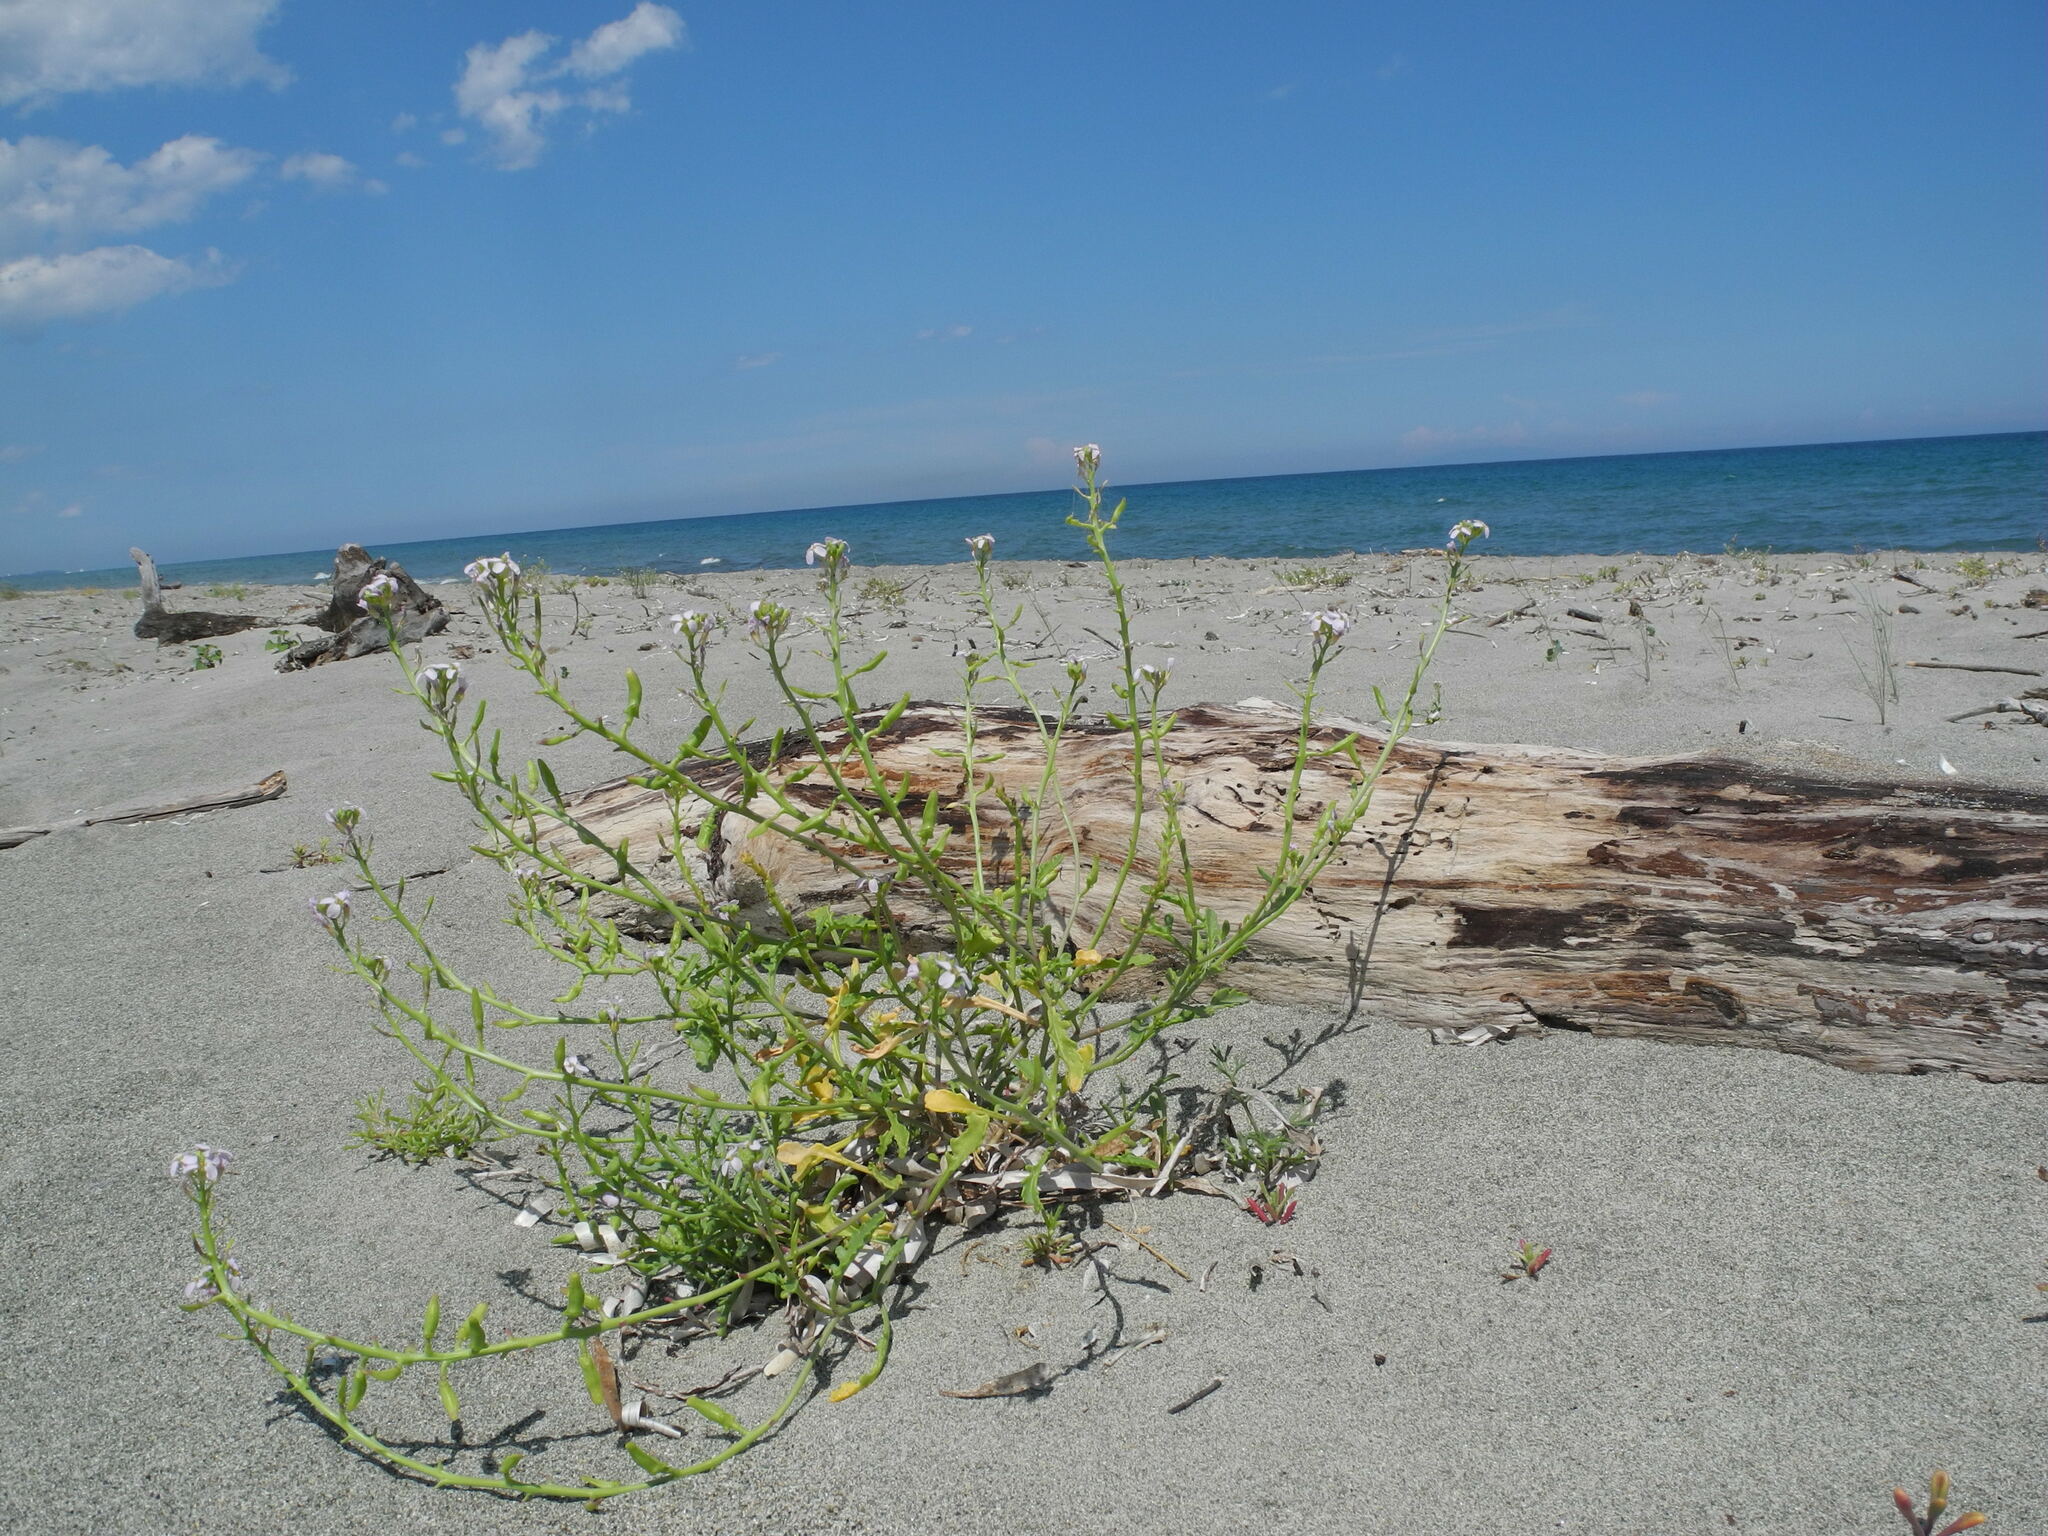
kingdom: Plantae
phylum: Tracheophyta
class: Magnoliopsida
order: Brassicales
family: Brassicaceae
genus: Cakile
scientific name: Cakile maritima
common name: Sea rocket
